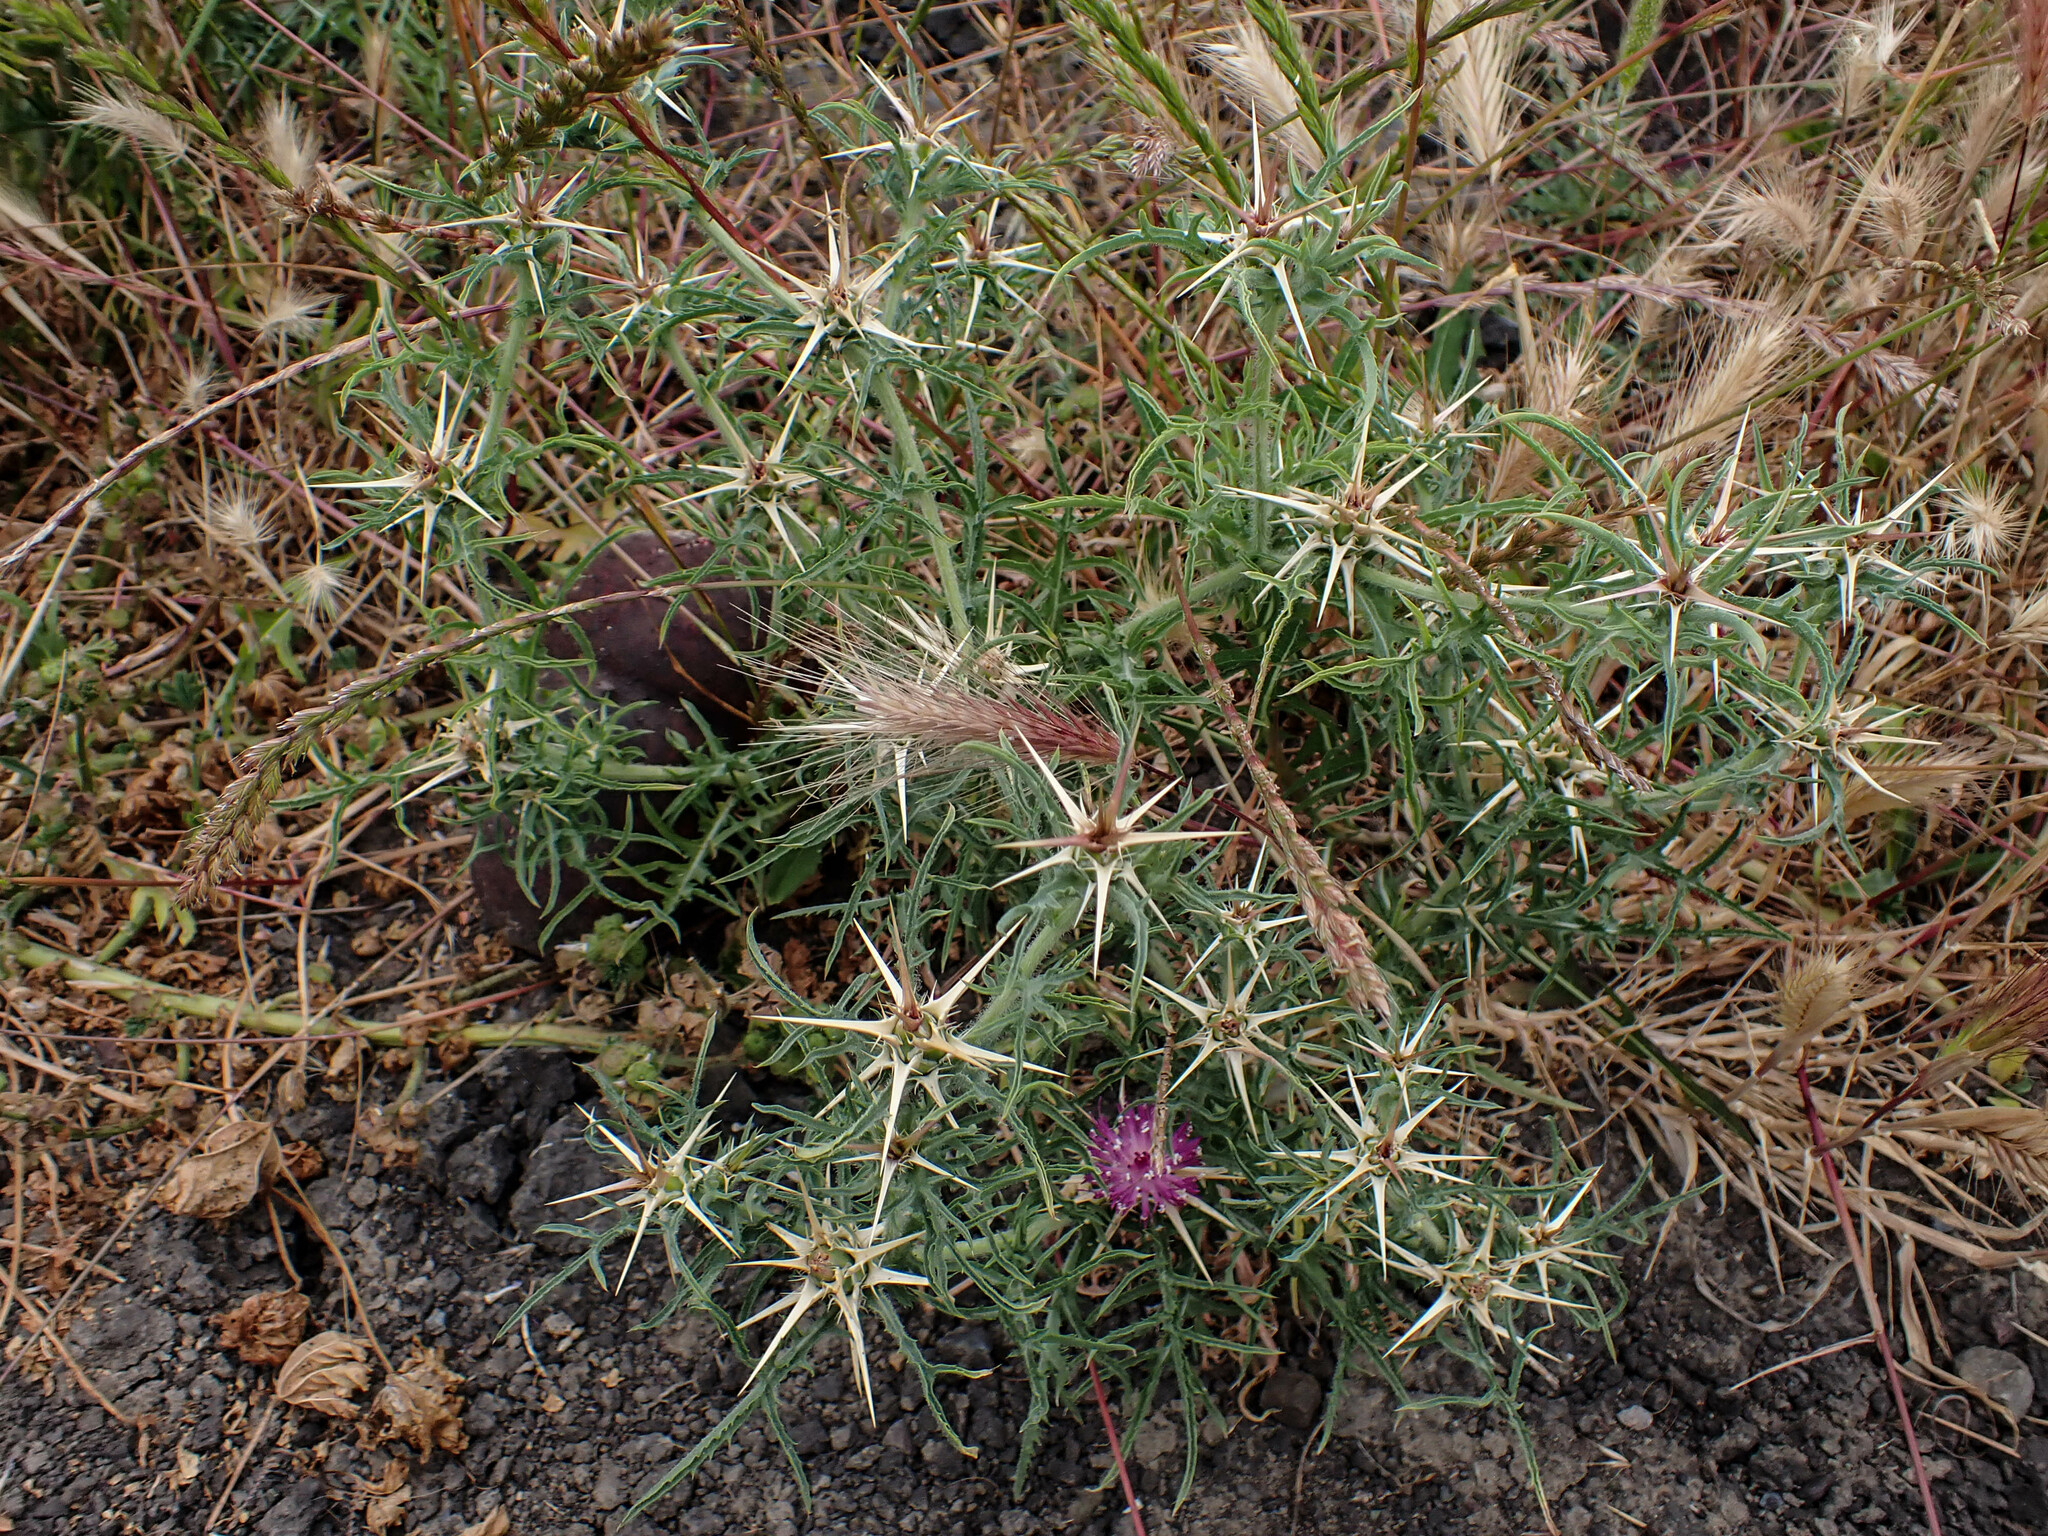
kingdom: Plantae
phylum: Tracheophyta
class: Magnoliopsida
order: Asterales
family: Asteraceae
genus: Centaurea
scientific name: Centaurea calcitrapa
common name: Red star-thistle
